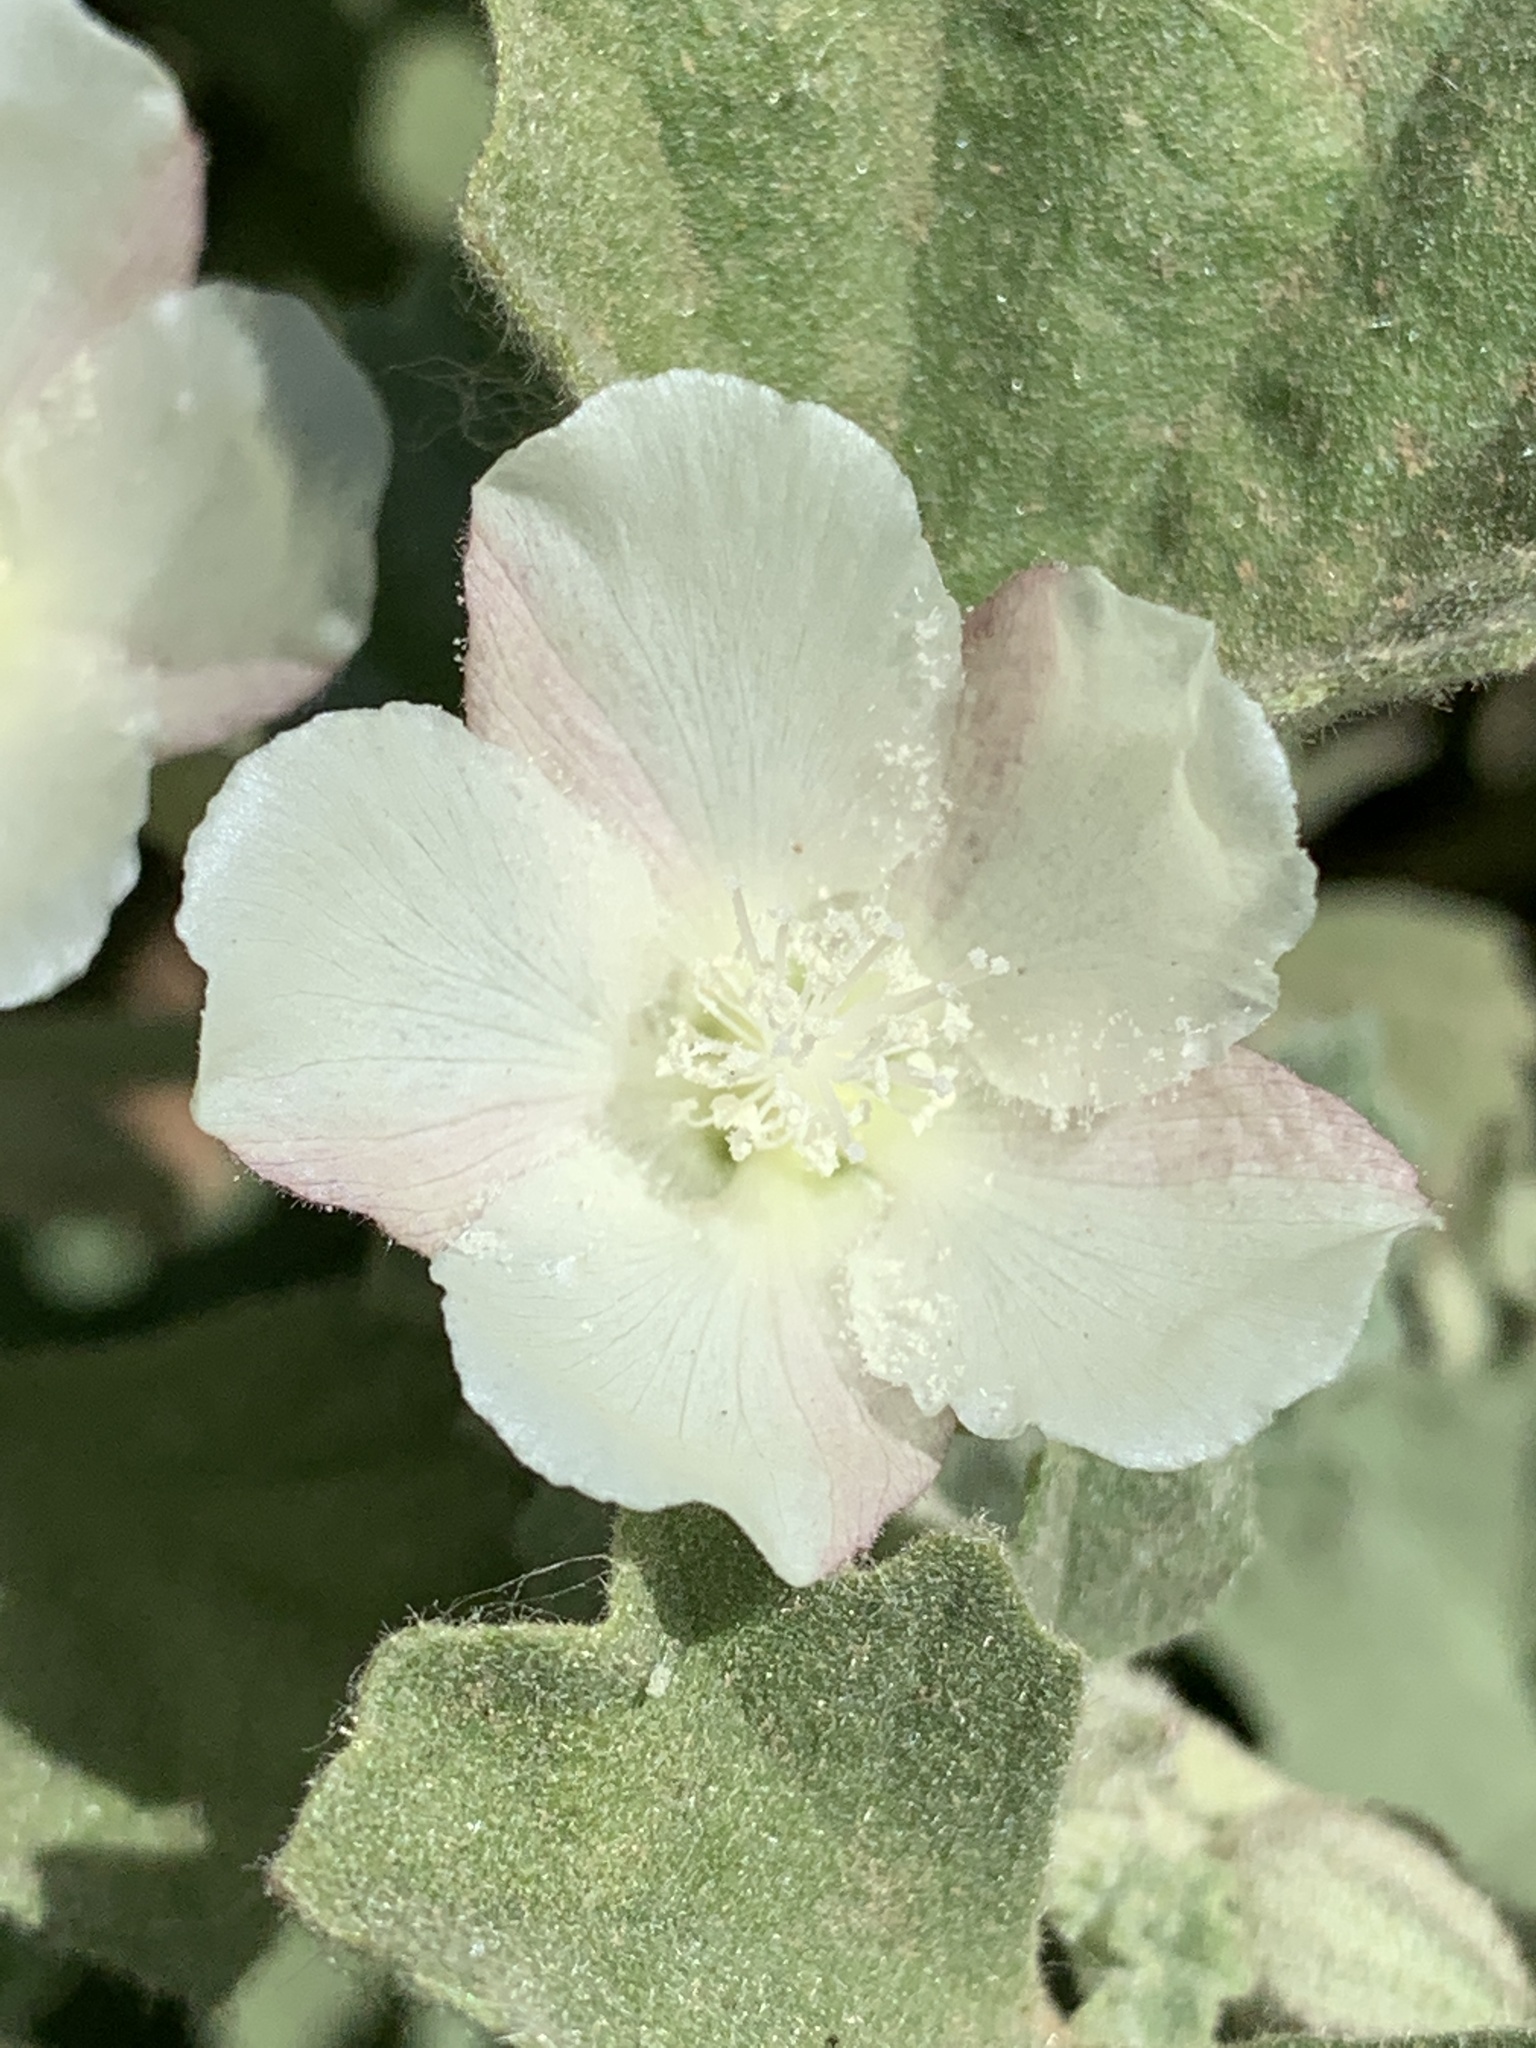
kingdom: Plantae
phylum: Tracheophyta
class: Magnoliopsida
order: Malvales
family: Malvaceae
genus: Malvella
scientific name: Malvella leprosa
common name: Alkali-mallow
